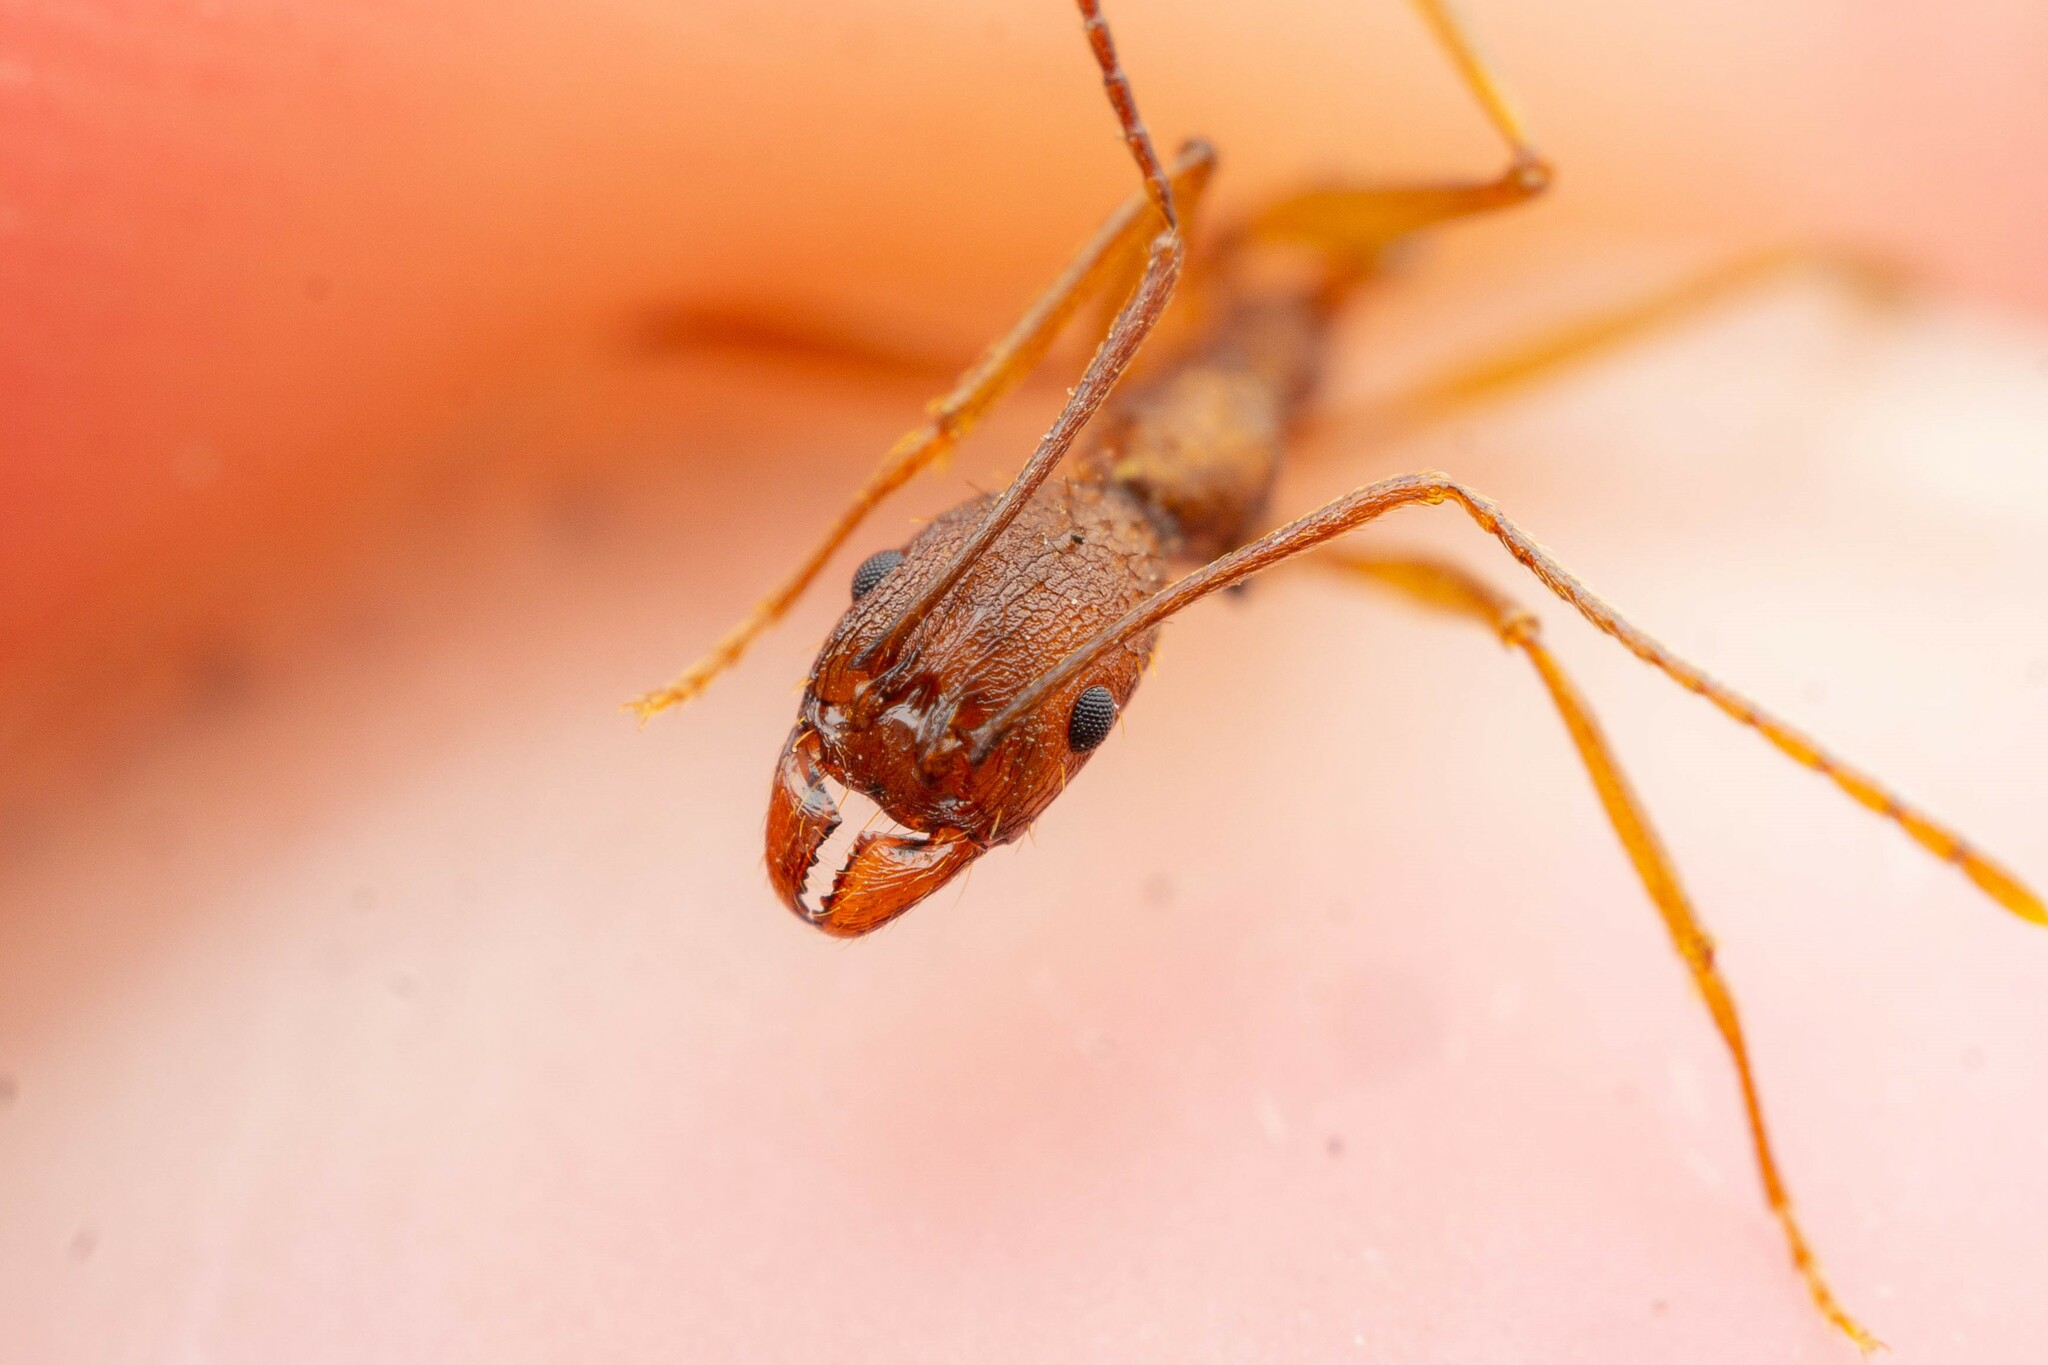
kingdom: Animalia
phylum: Arthropoda
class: Insecta
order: Hymenoptera
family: Formicidae
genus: Aphaenogaster
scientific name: Aphaenogaster huachucana
